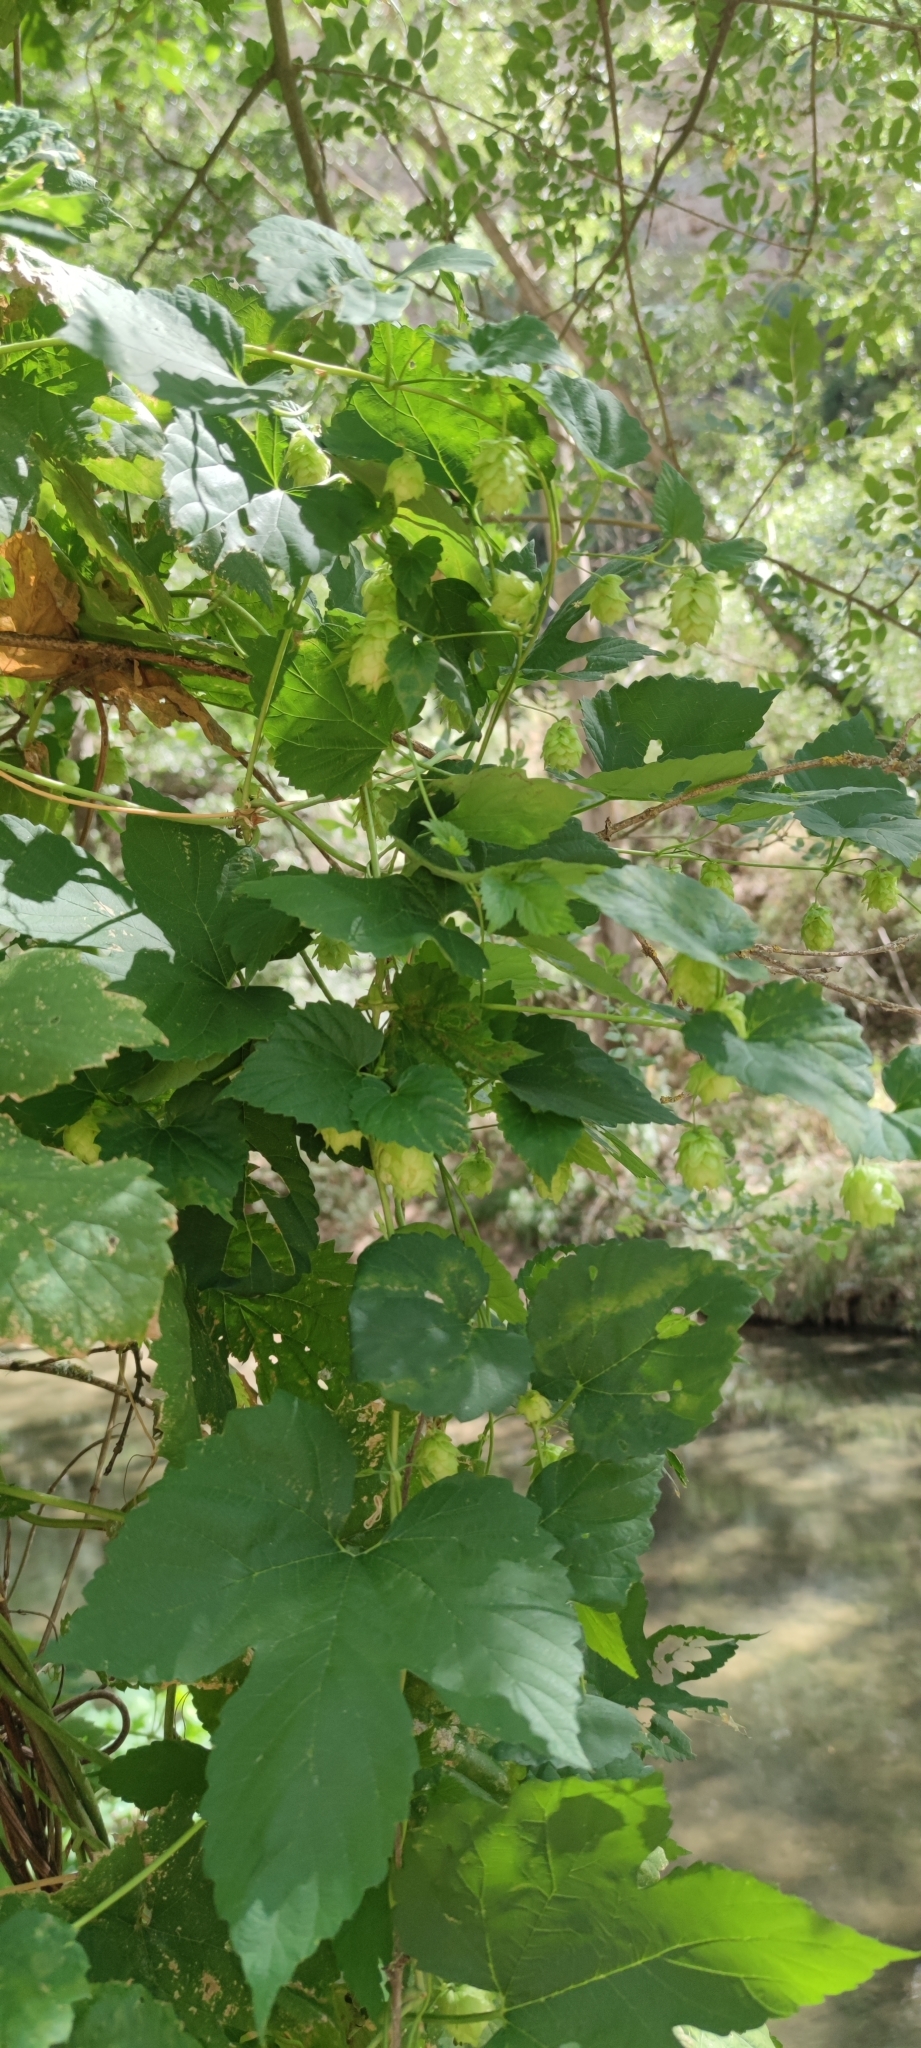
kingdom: Plantae
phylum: Tracheophyta
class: Magnoliopsida
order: Rosales
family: Cannabaceae
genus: Humulus
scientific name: Humulus lupulus
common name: Hop
